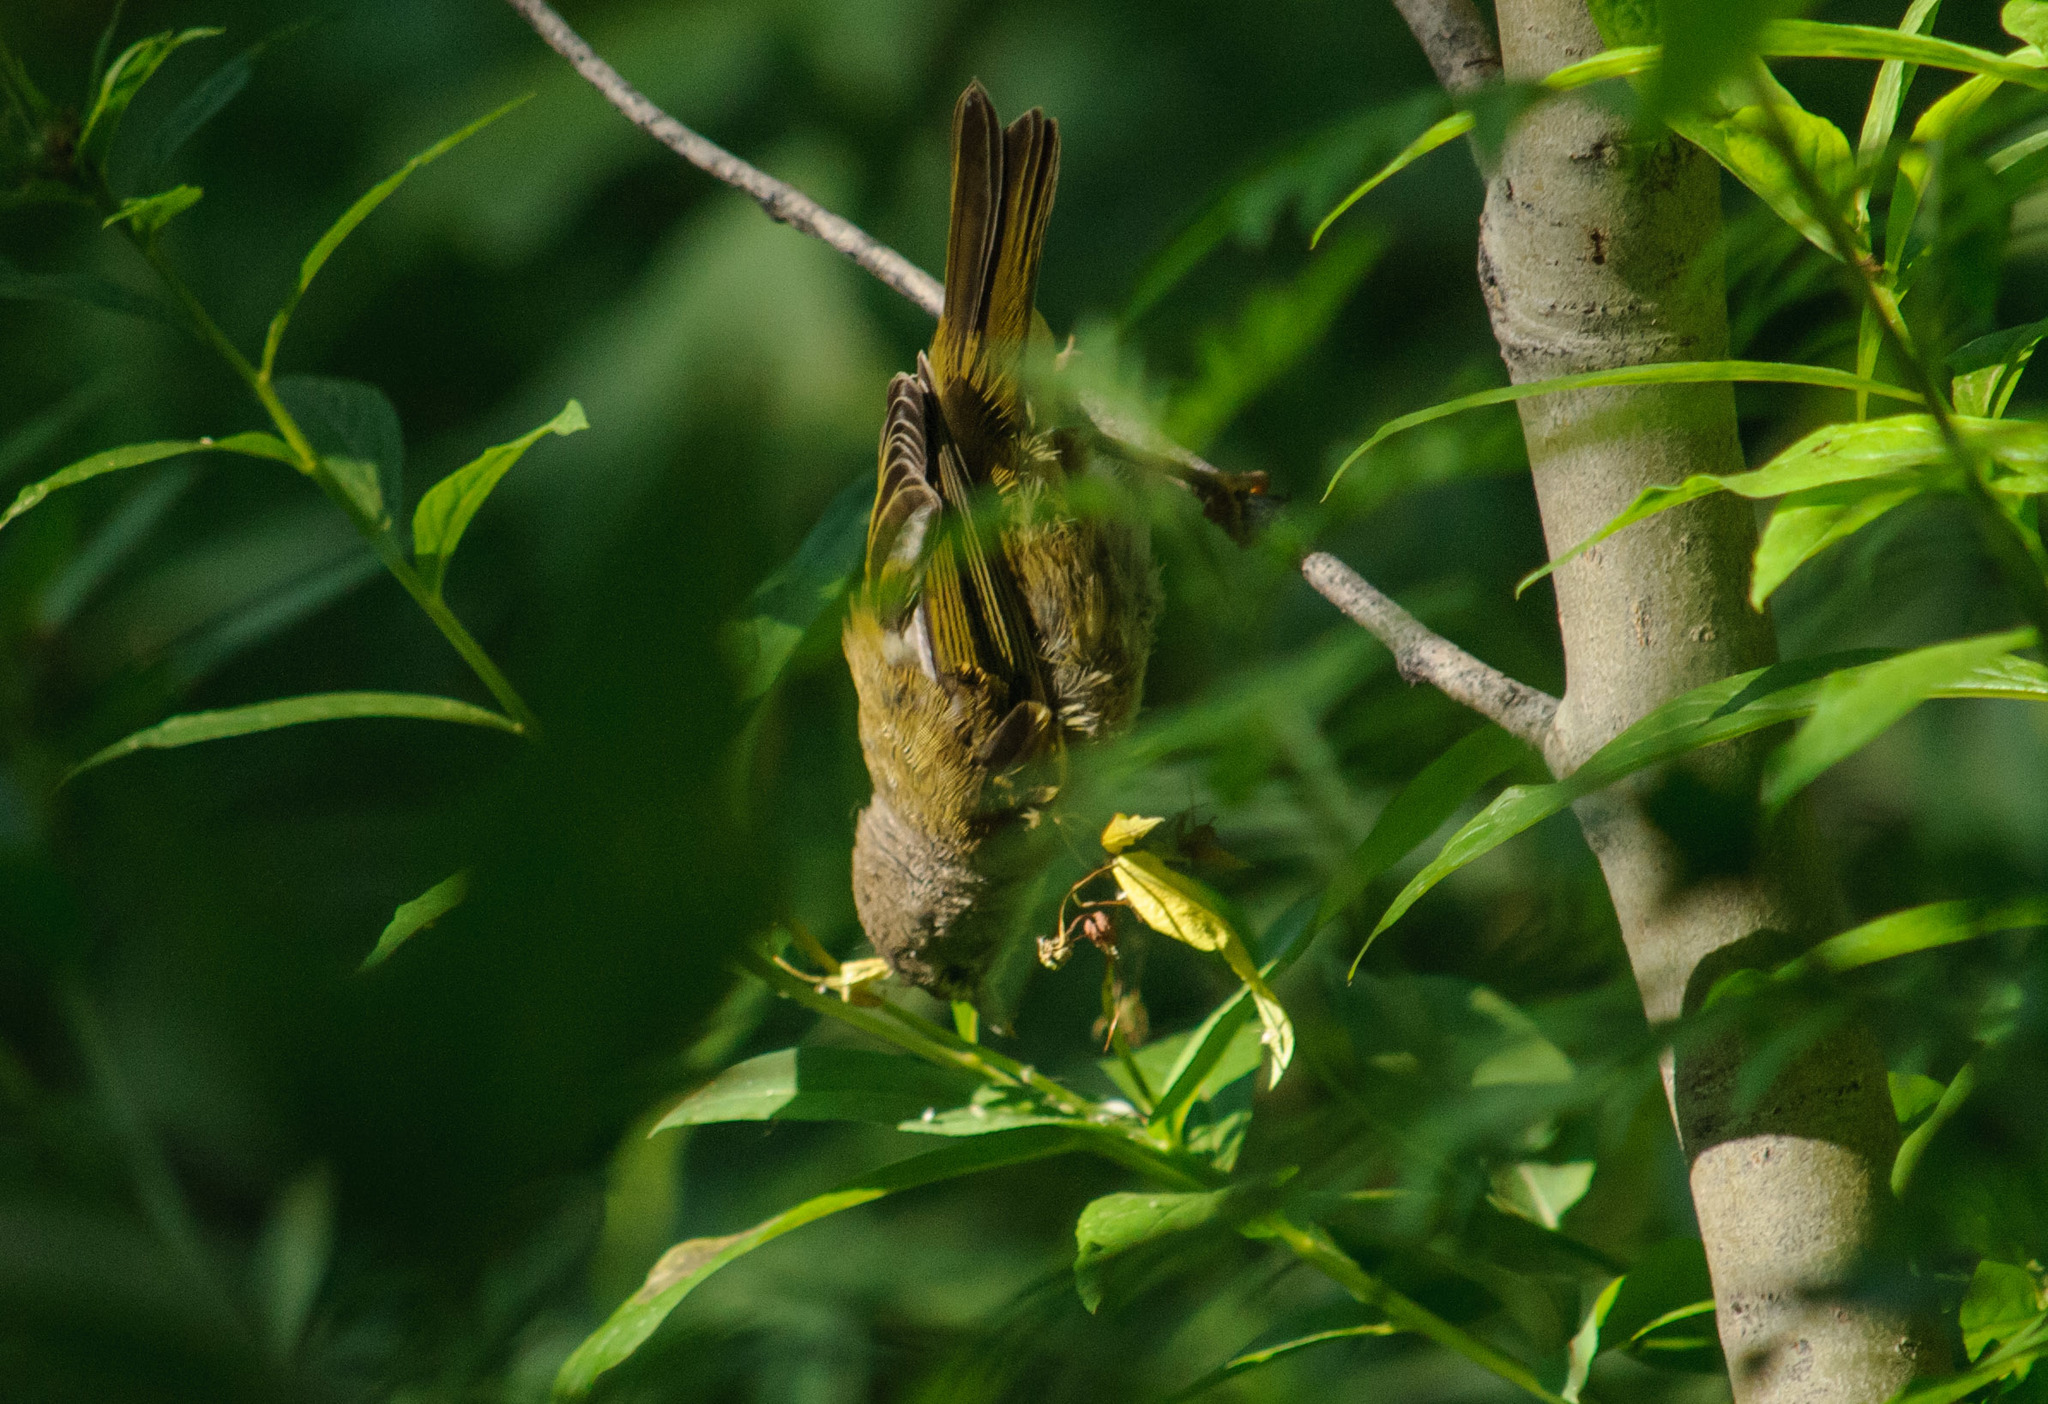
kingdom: Animalia
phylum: Chordata
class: Aves
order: Passeriformes
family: Parulidae
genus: Geothlypis
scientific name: Geothlypis tolmiei
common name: Macgillivray's warbler
